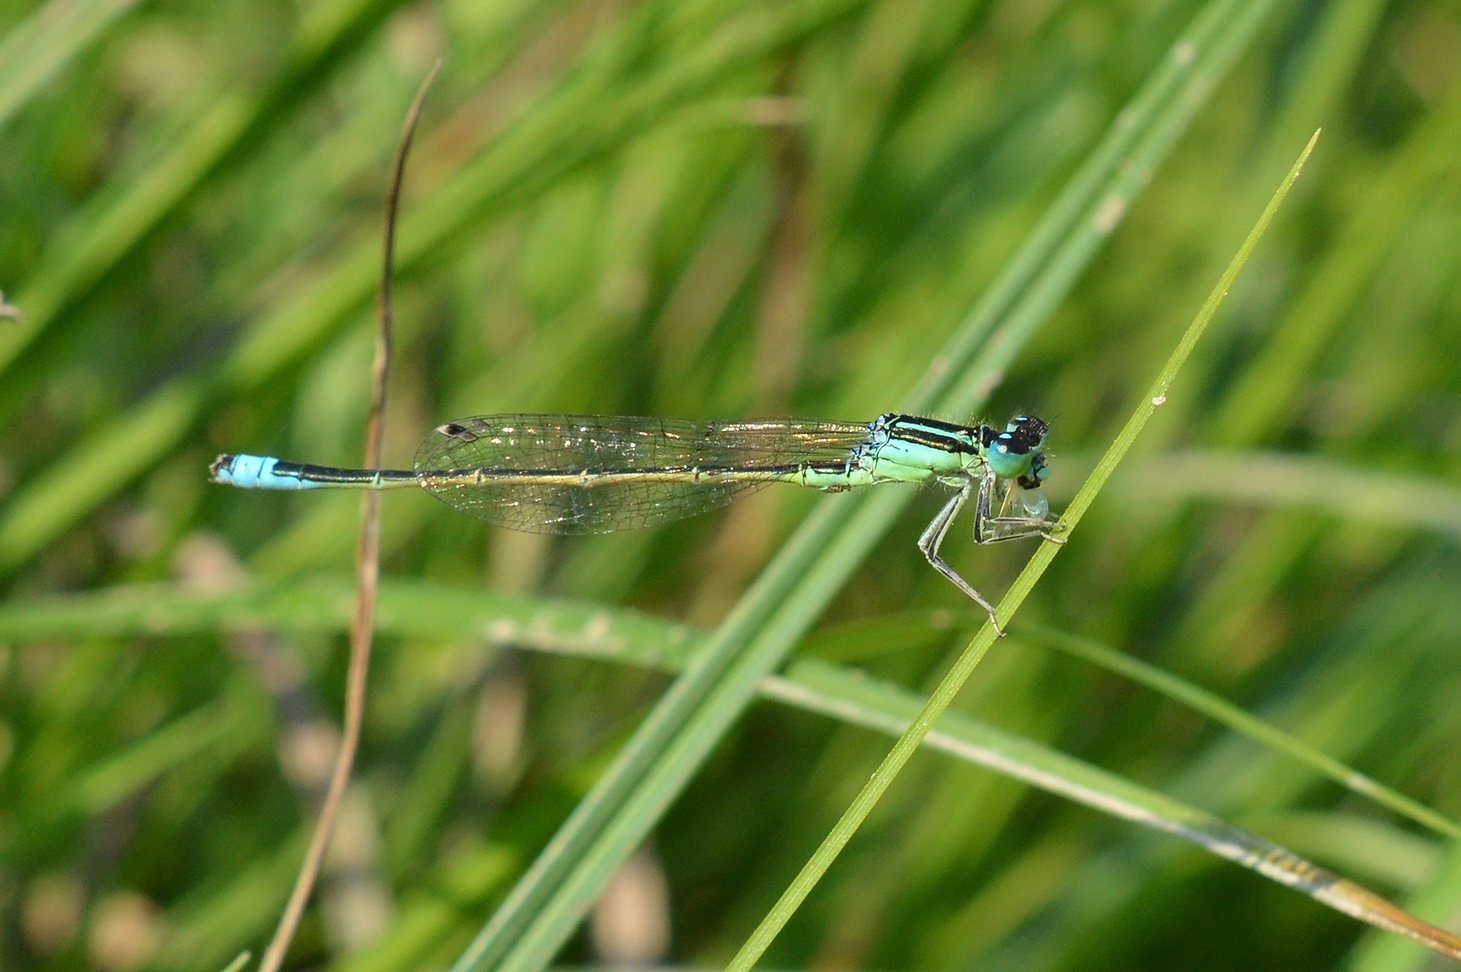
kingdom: Animalia
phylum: Arthropoda
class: Insecta
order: Odonata
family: Coenagrionidae
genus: Ischnura
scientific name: Ischnura pumilio
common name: Scarce blue-tailed damselfly
